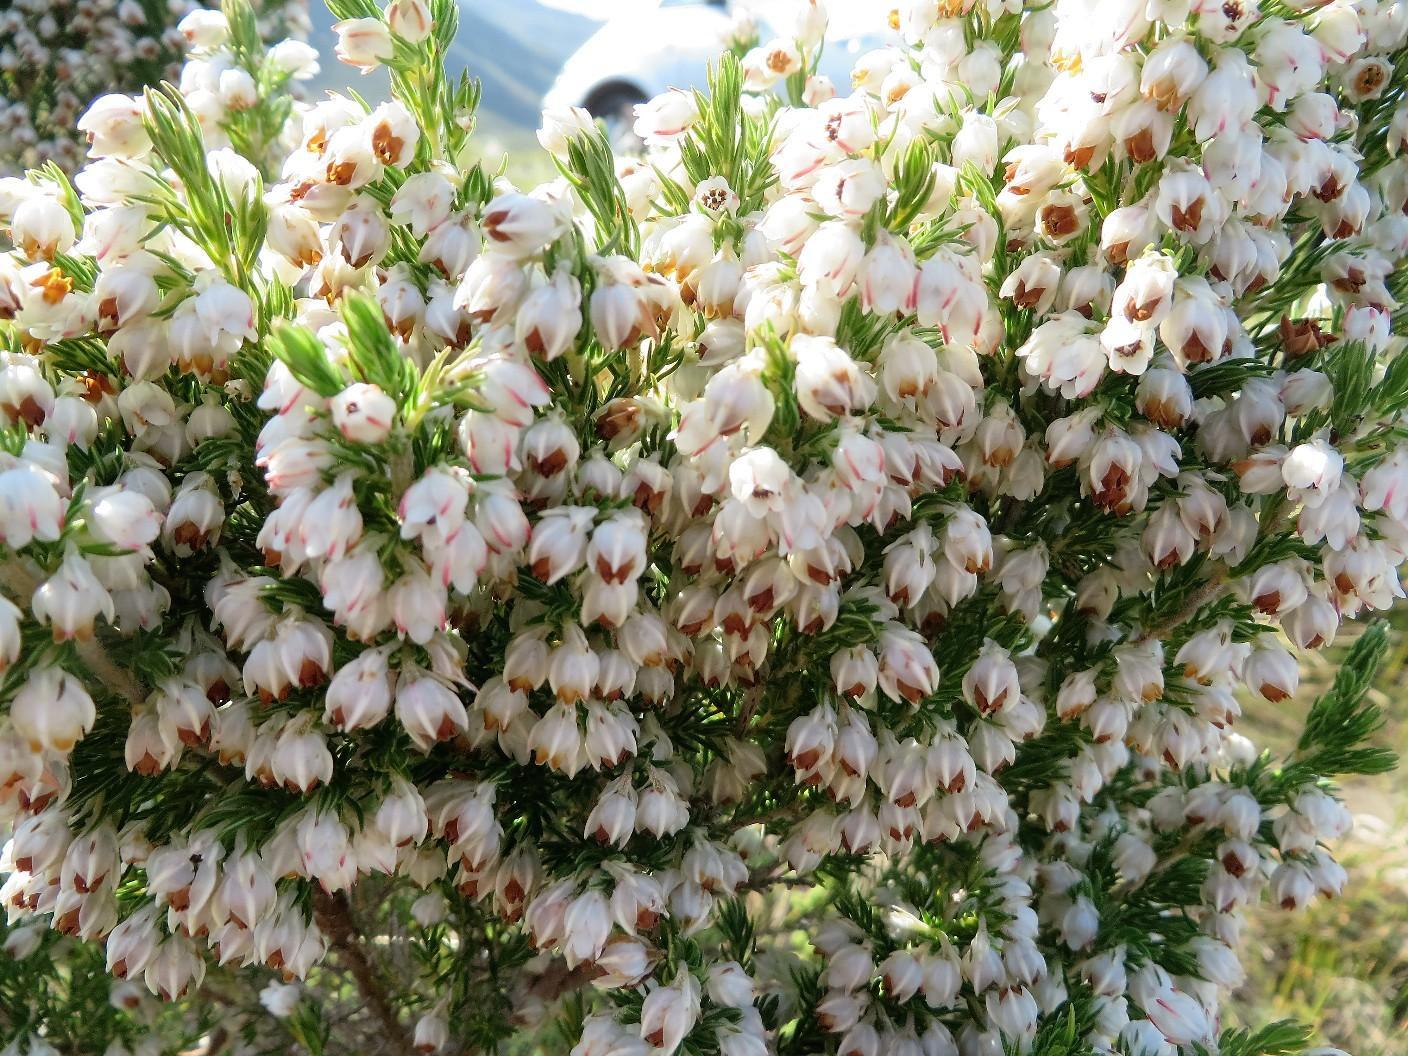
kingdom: Plantae
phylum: Tracheophyta
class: Magnoliopsida
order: Ericales
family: Ericaceae
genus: Erica
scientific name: Erica triflora
